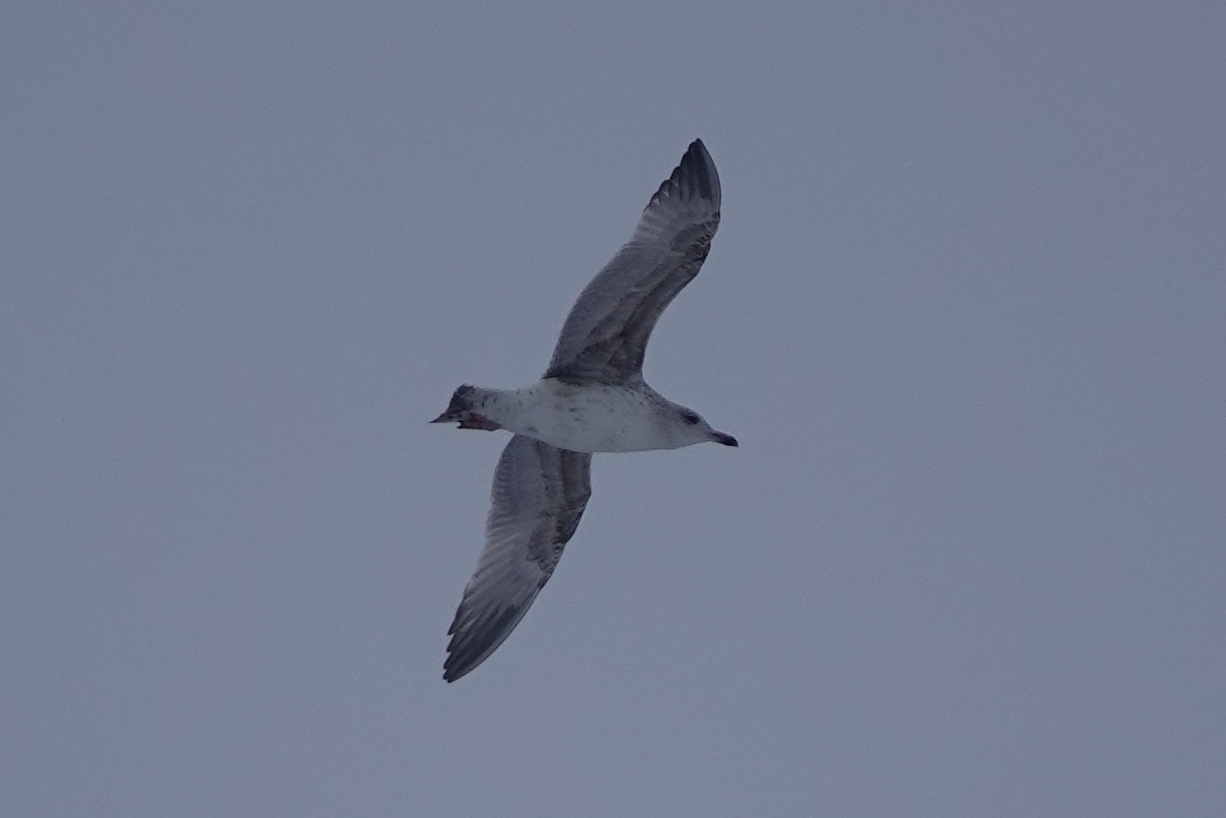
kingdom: Animalia
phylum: Chordata
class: Aves
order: Charadriiformes
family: Laridae
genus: Larus
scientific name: Larus argentatus
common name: Herring gull
